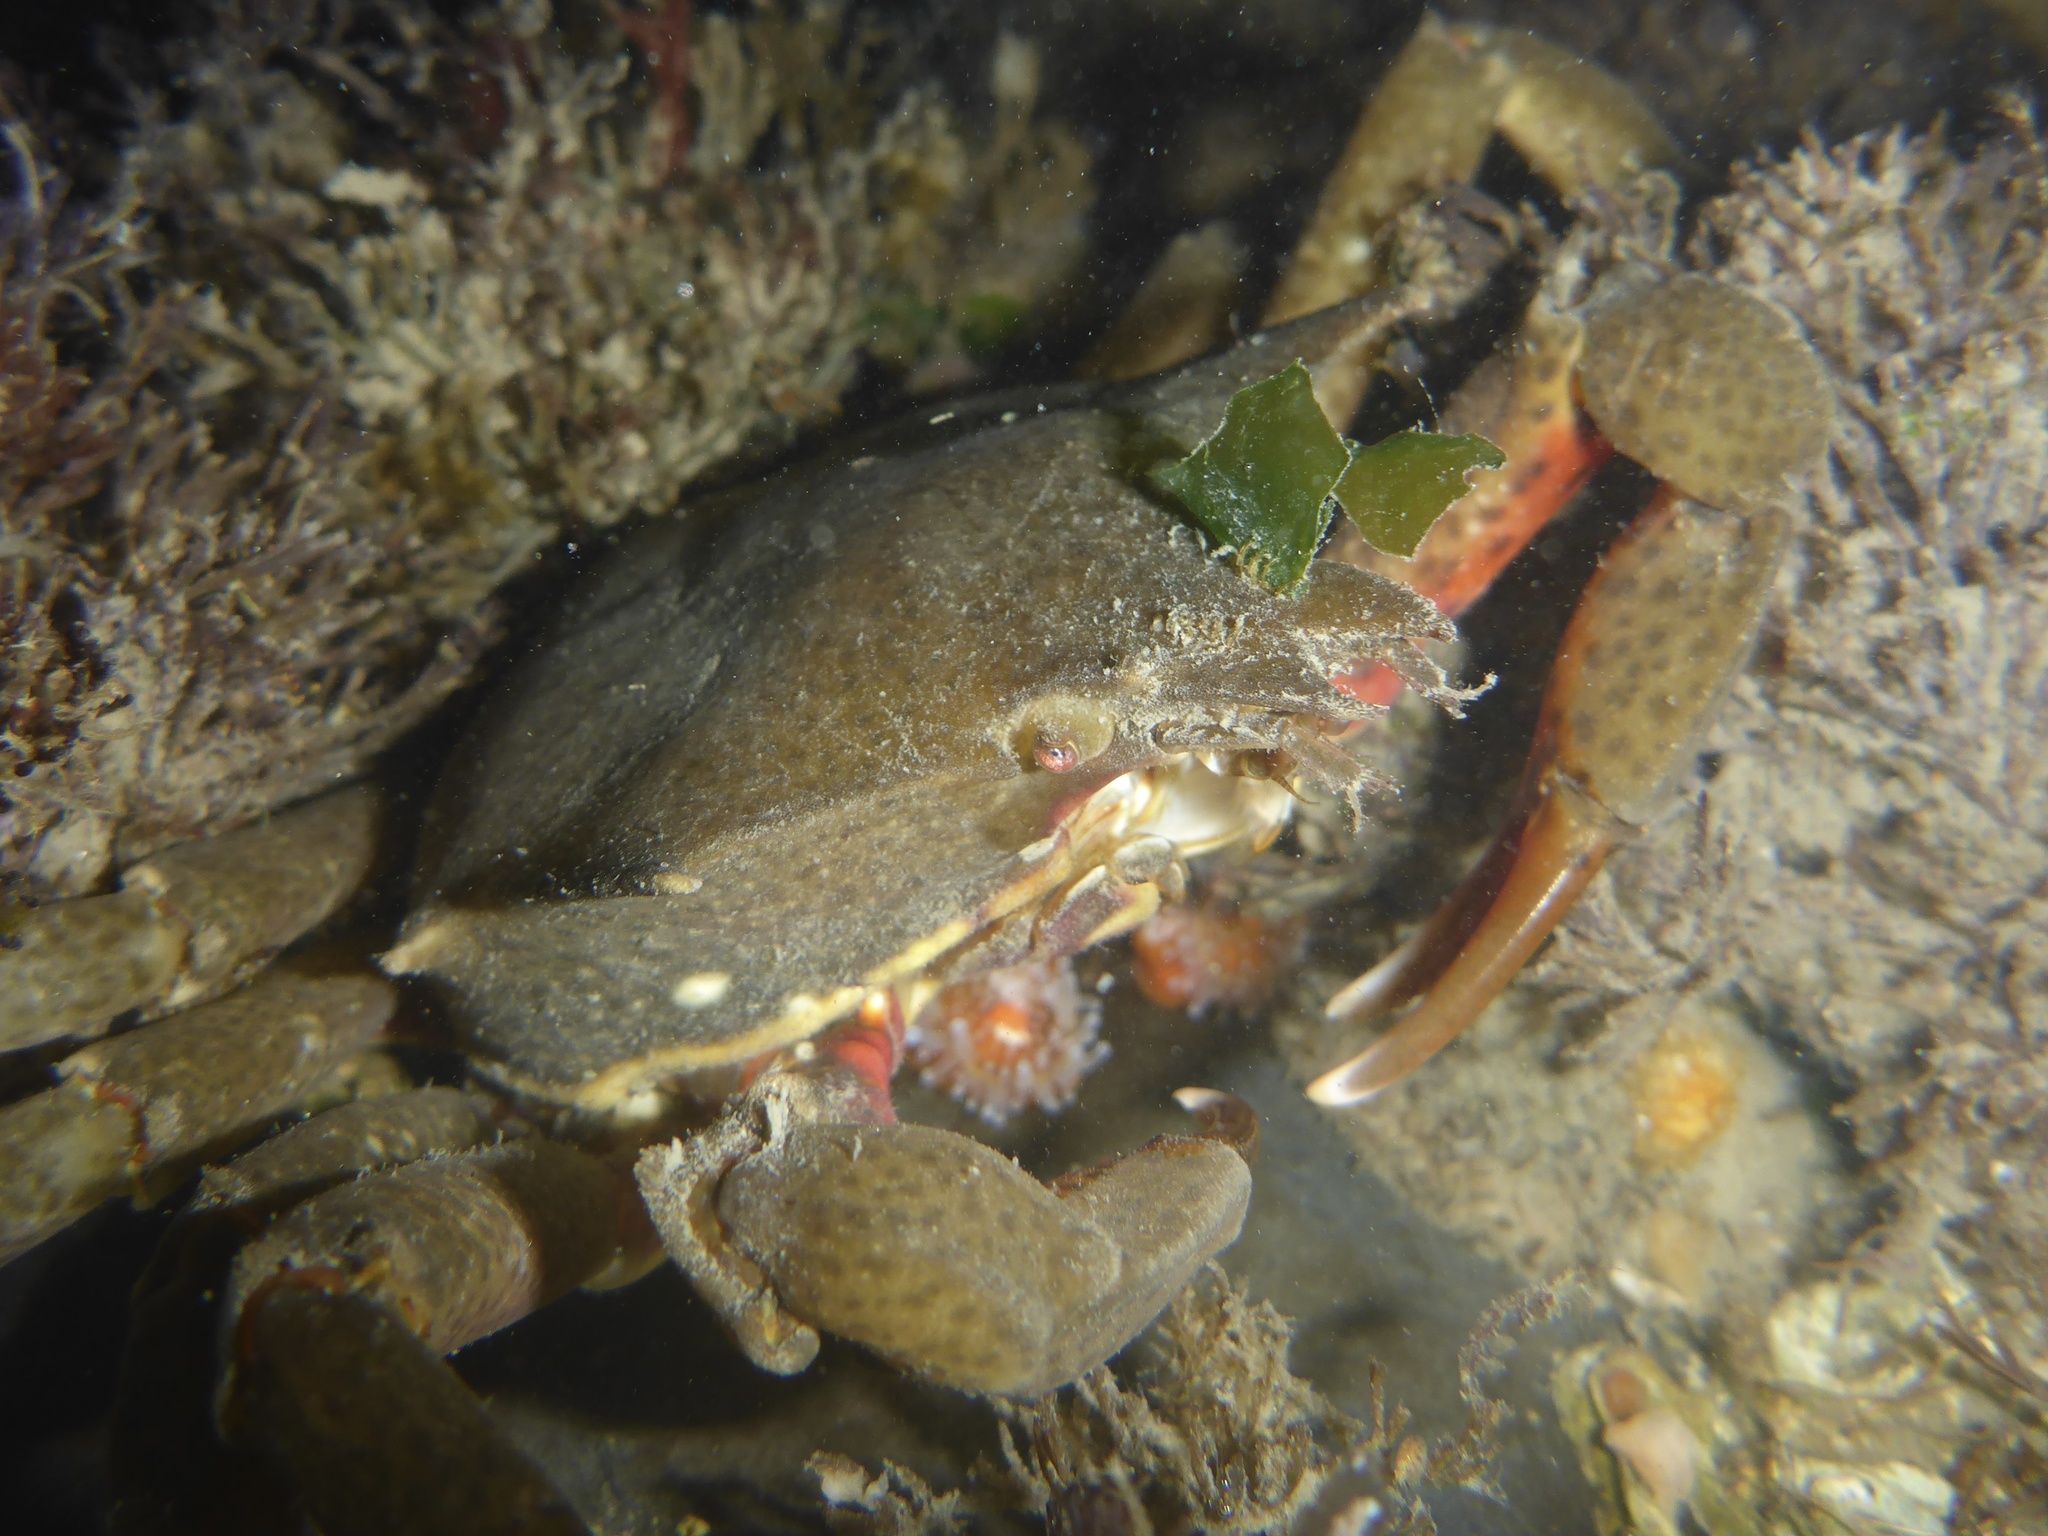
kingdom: Animalia
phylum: Arthropoda
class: Malacostraca
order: Decapoda
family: Epialtidae
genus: Pugettia
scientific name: Pugettia producta
